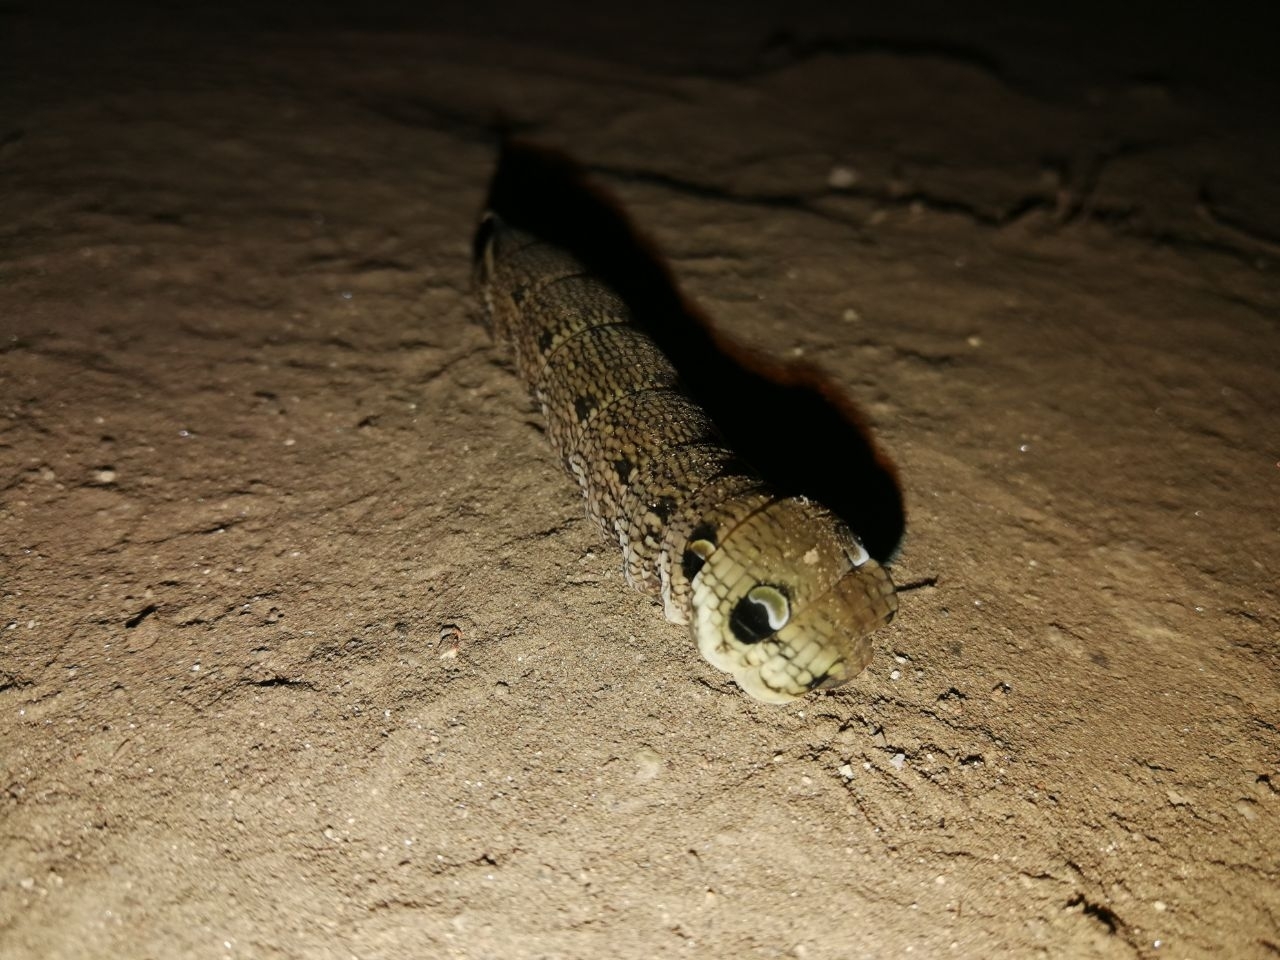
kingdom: Animalia
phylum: Arthropoda
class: Insecta
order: Lepidoptera
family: Sphingidae
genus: Deilephila
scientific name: Deilephila elpenor
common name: Elephant hawk-moth
